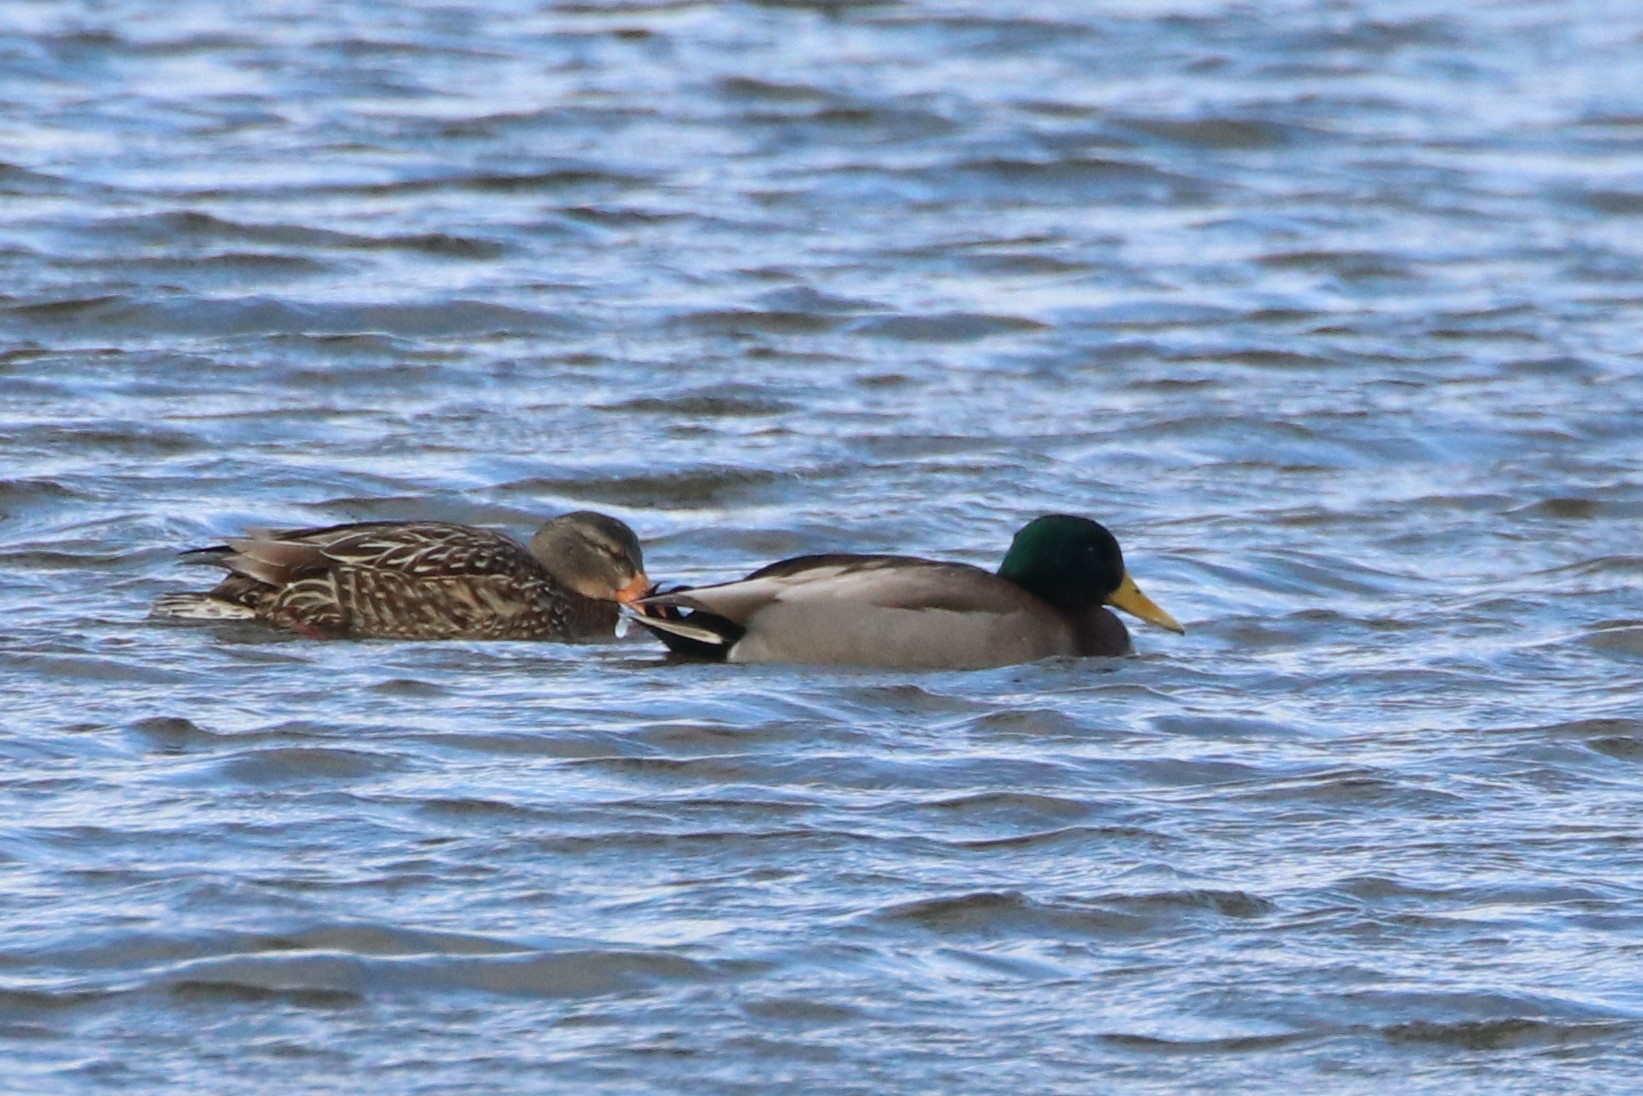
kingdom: Animalia
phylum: Chordata
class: Aves
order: Anseriformes
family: Anatidae
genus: Anas
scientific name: Anas platyrhynchos
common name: Mallard
